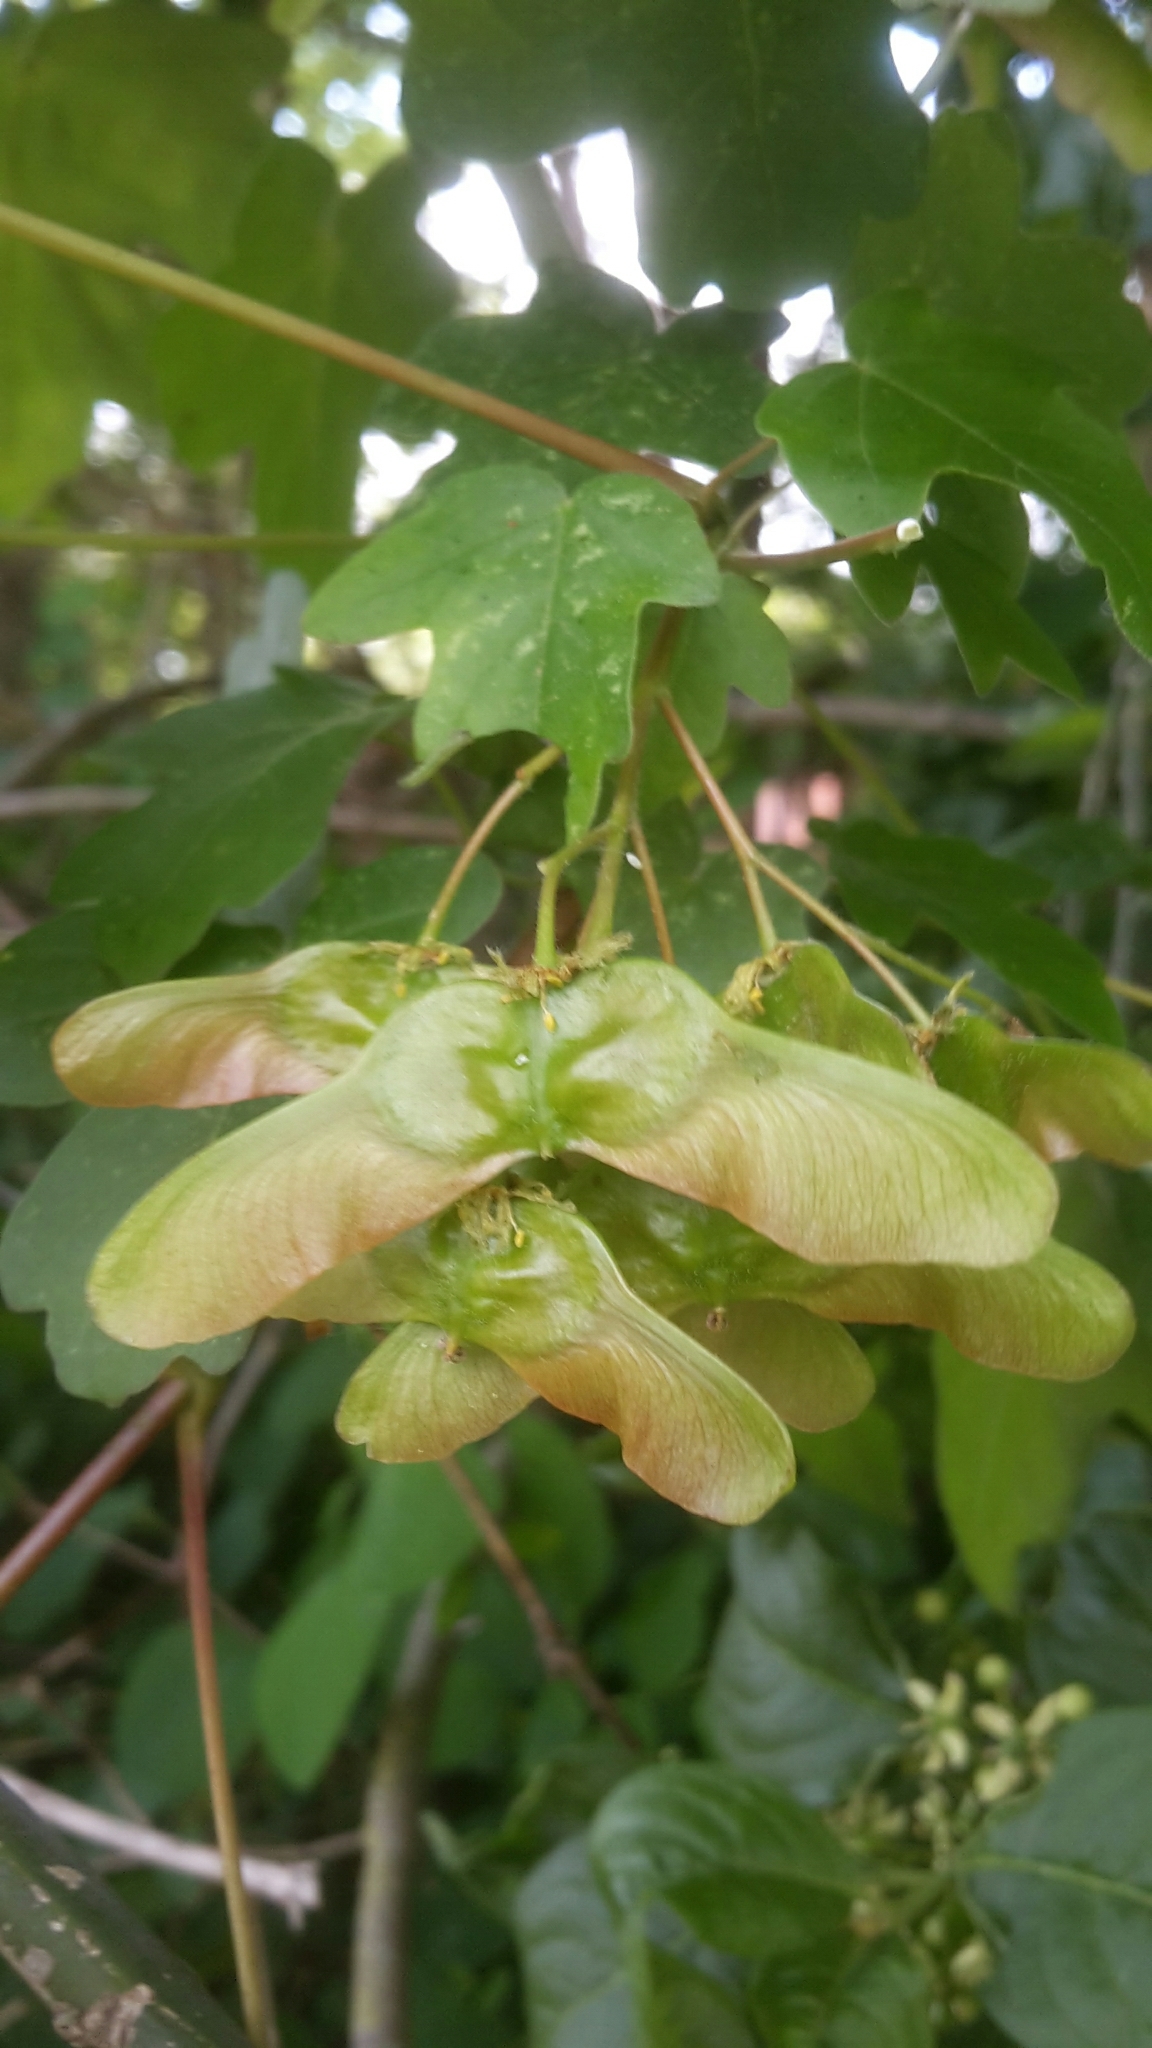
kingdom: Plantae
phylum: Tracheophyta
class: Magnoliopsida
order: Sapindales
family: Sapindaceae
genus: Acer
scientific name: Acer campestre
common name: Field maple
